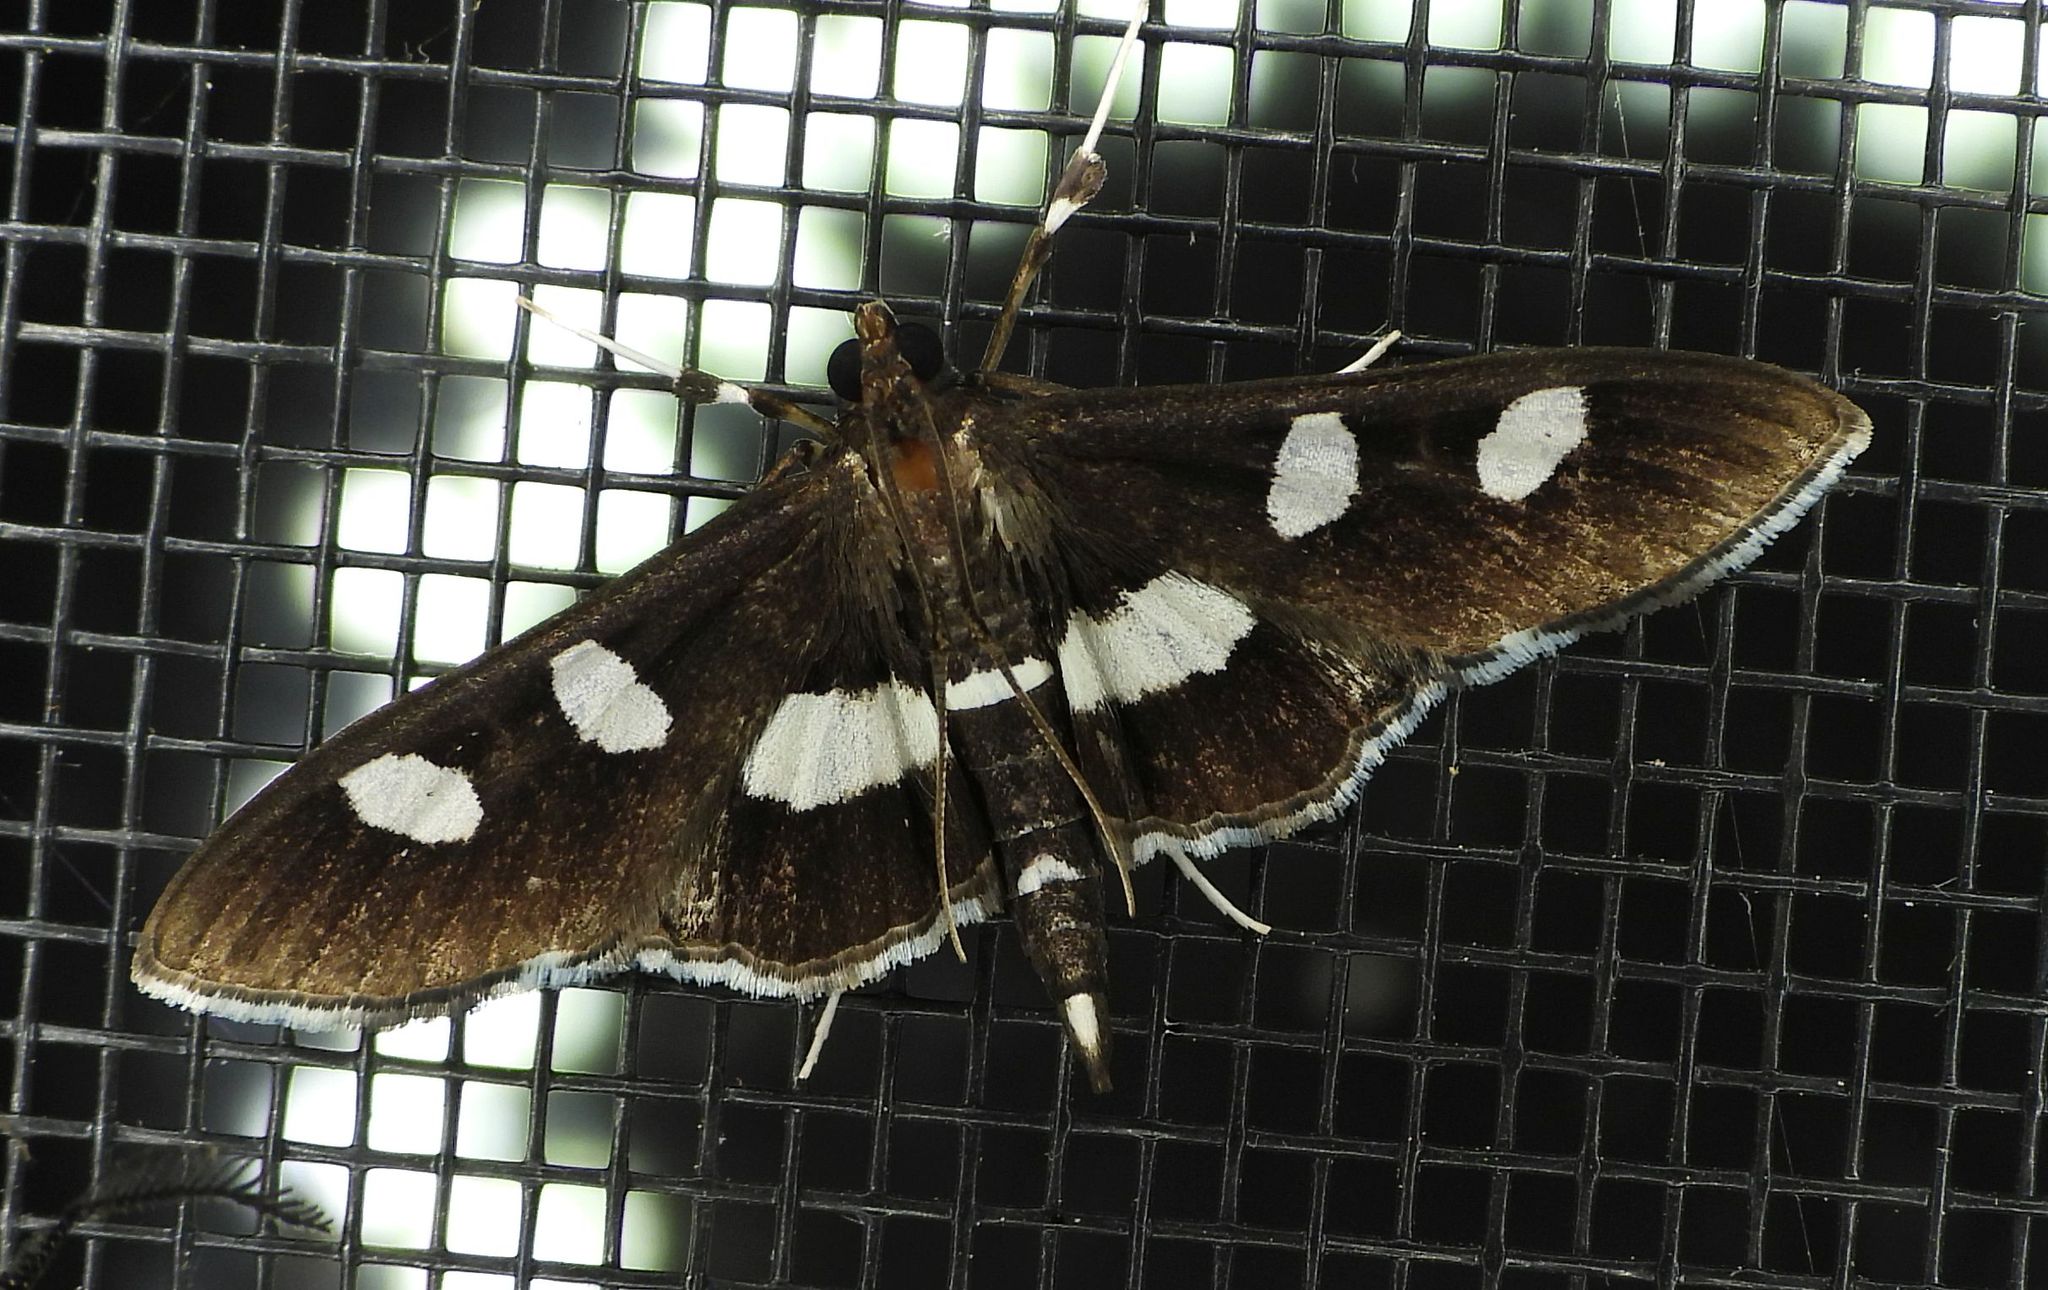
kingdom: Animalia
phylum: Arthropoda
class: Insecta
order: Lepidoptera
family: Crambidae
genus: Desmia
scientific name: Desmia
